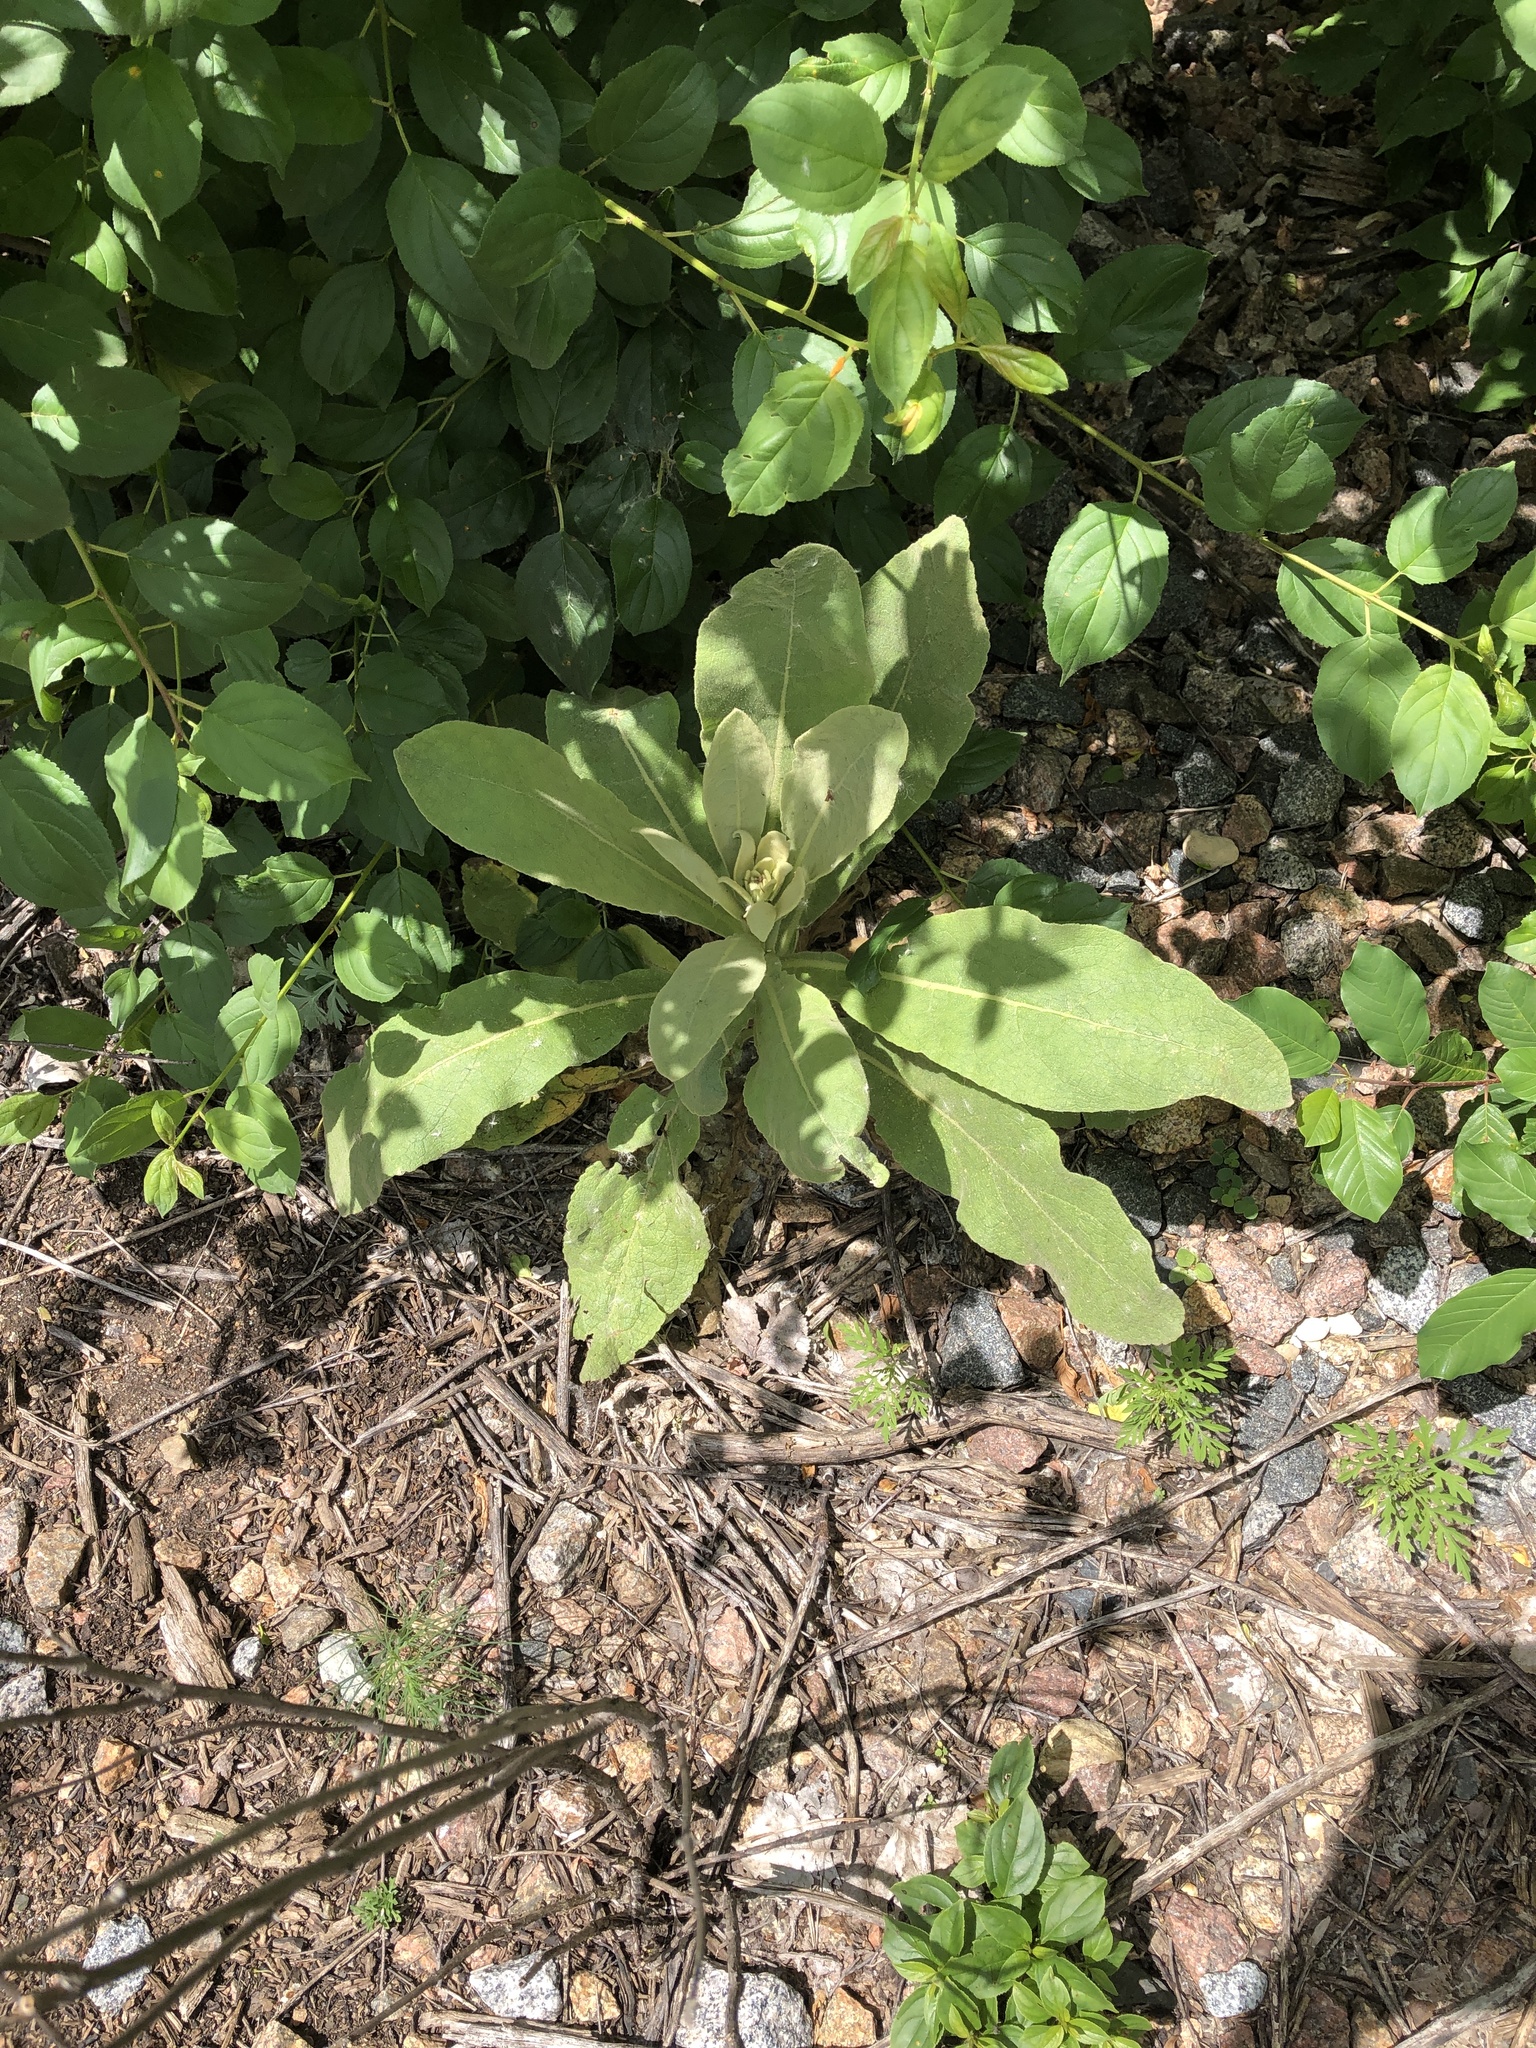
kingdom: Plantae
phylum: Tracheophyta
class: Magnoliopsida
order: Lamiales
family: Scrophulariaceae
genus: Verbascum
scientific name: Verbascum thapsus
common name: Common mullein
